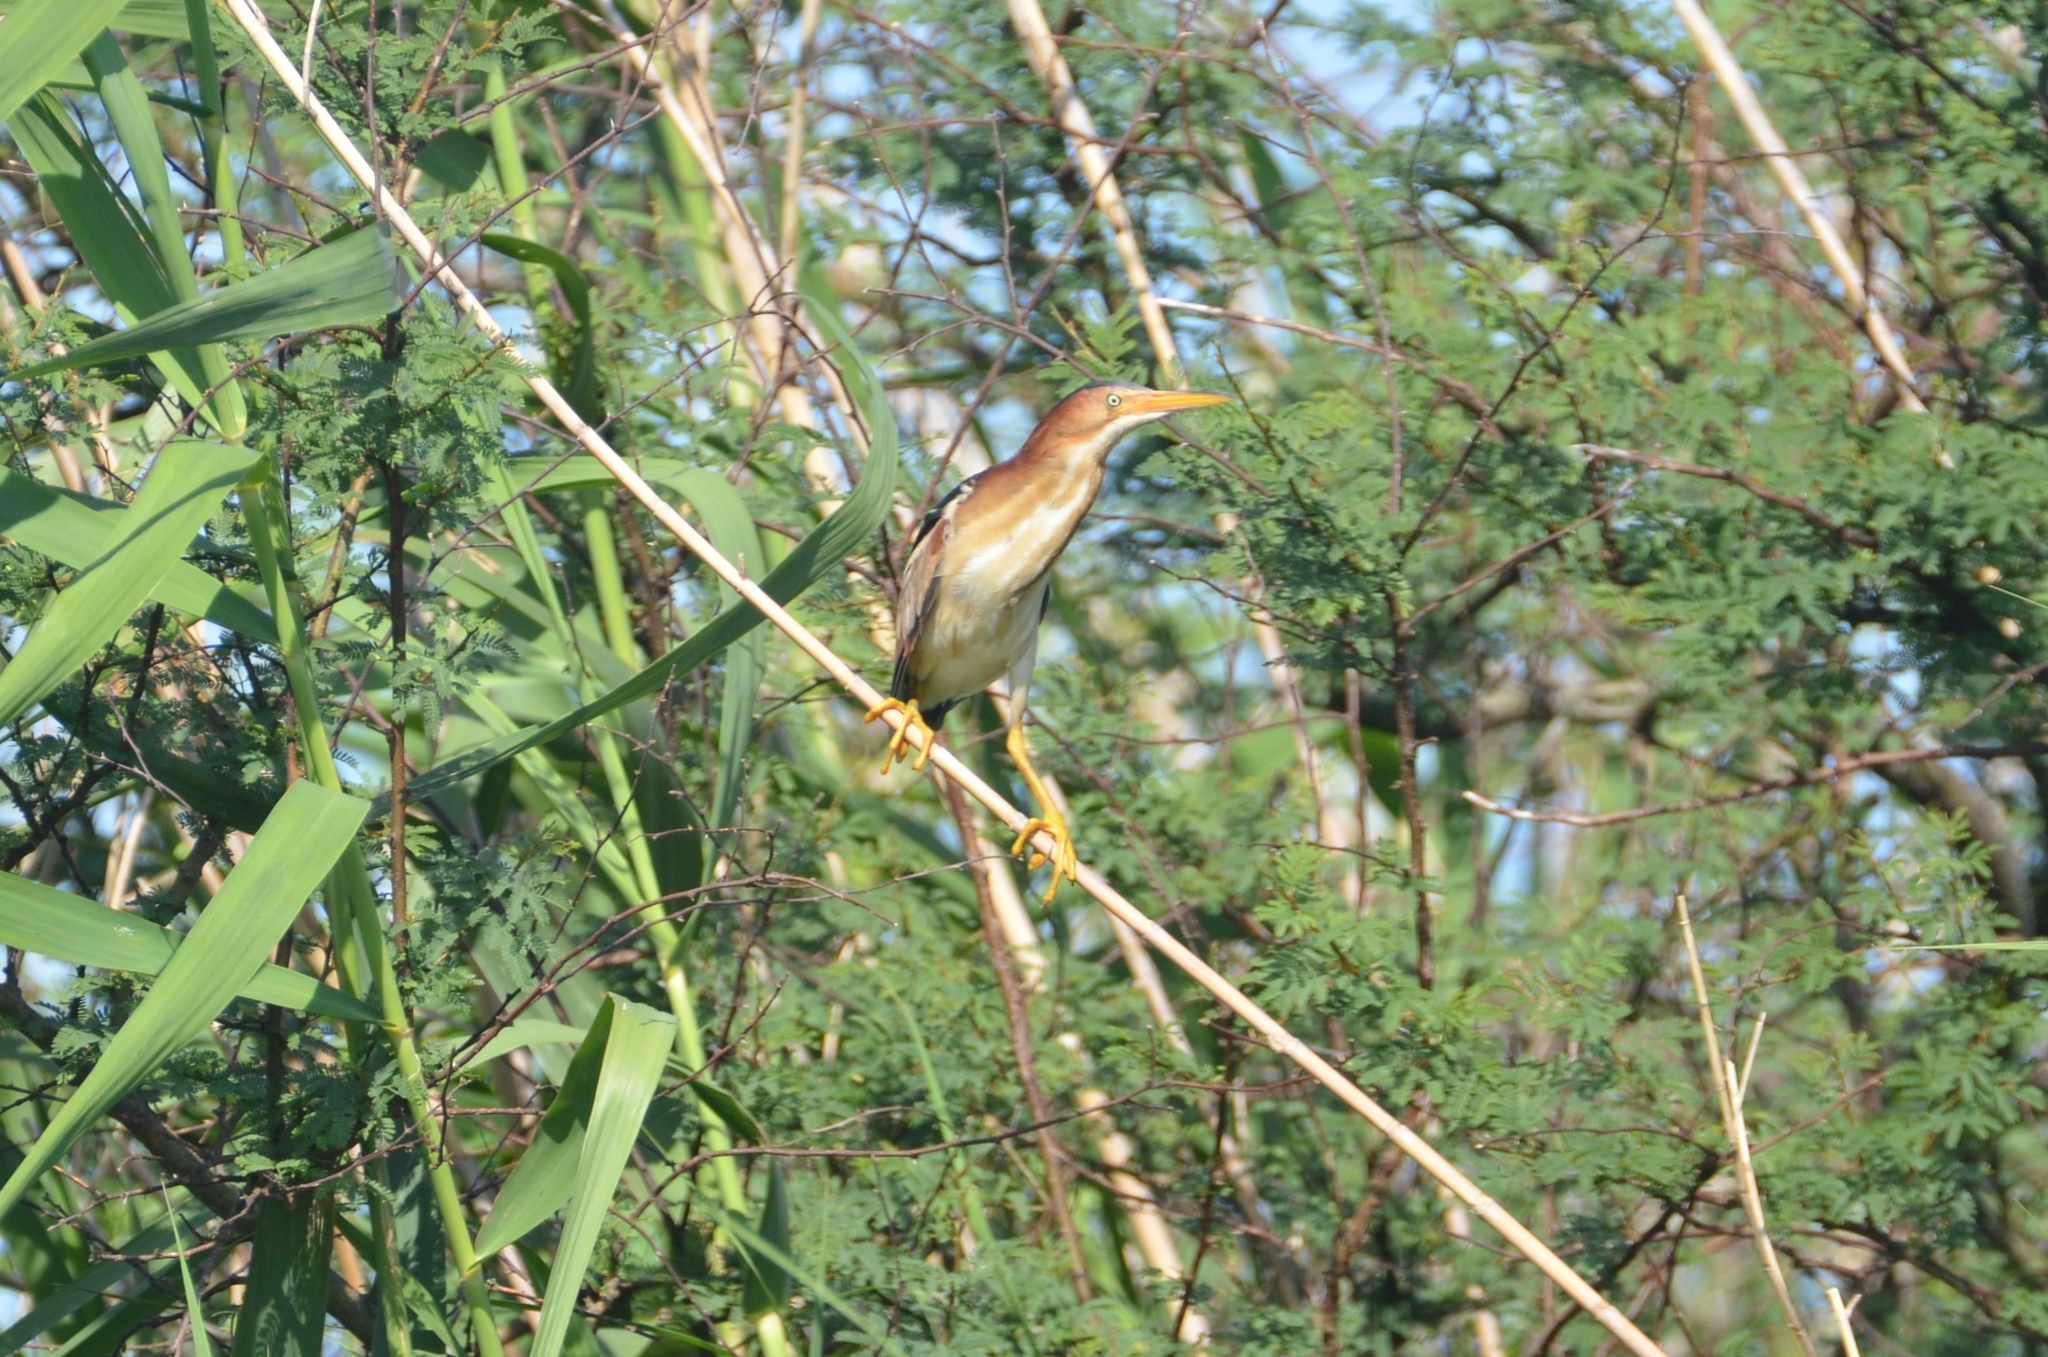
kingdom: Animalia
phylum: Chordata
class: Aves
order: Pelecaniformes
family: Ardeidae
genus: Ixobrychus
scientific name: Ixobrychus exilis
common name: Least bittern
